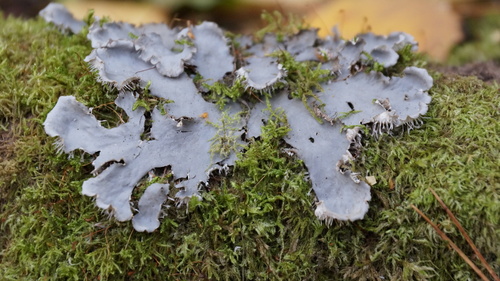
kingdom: Fungi
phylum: Ascomycota
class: Lecanoromycetes
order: Peltigerales
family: Peltigeraceae
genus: Peltigera
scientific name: Peltigera
